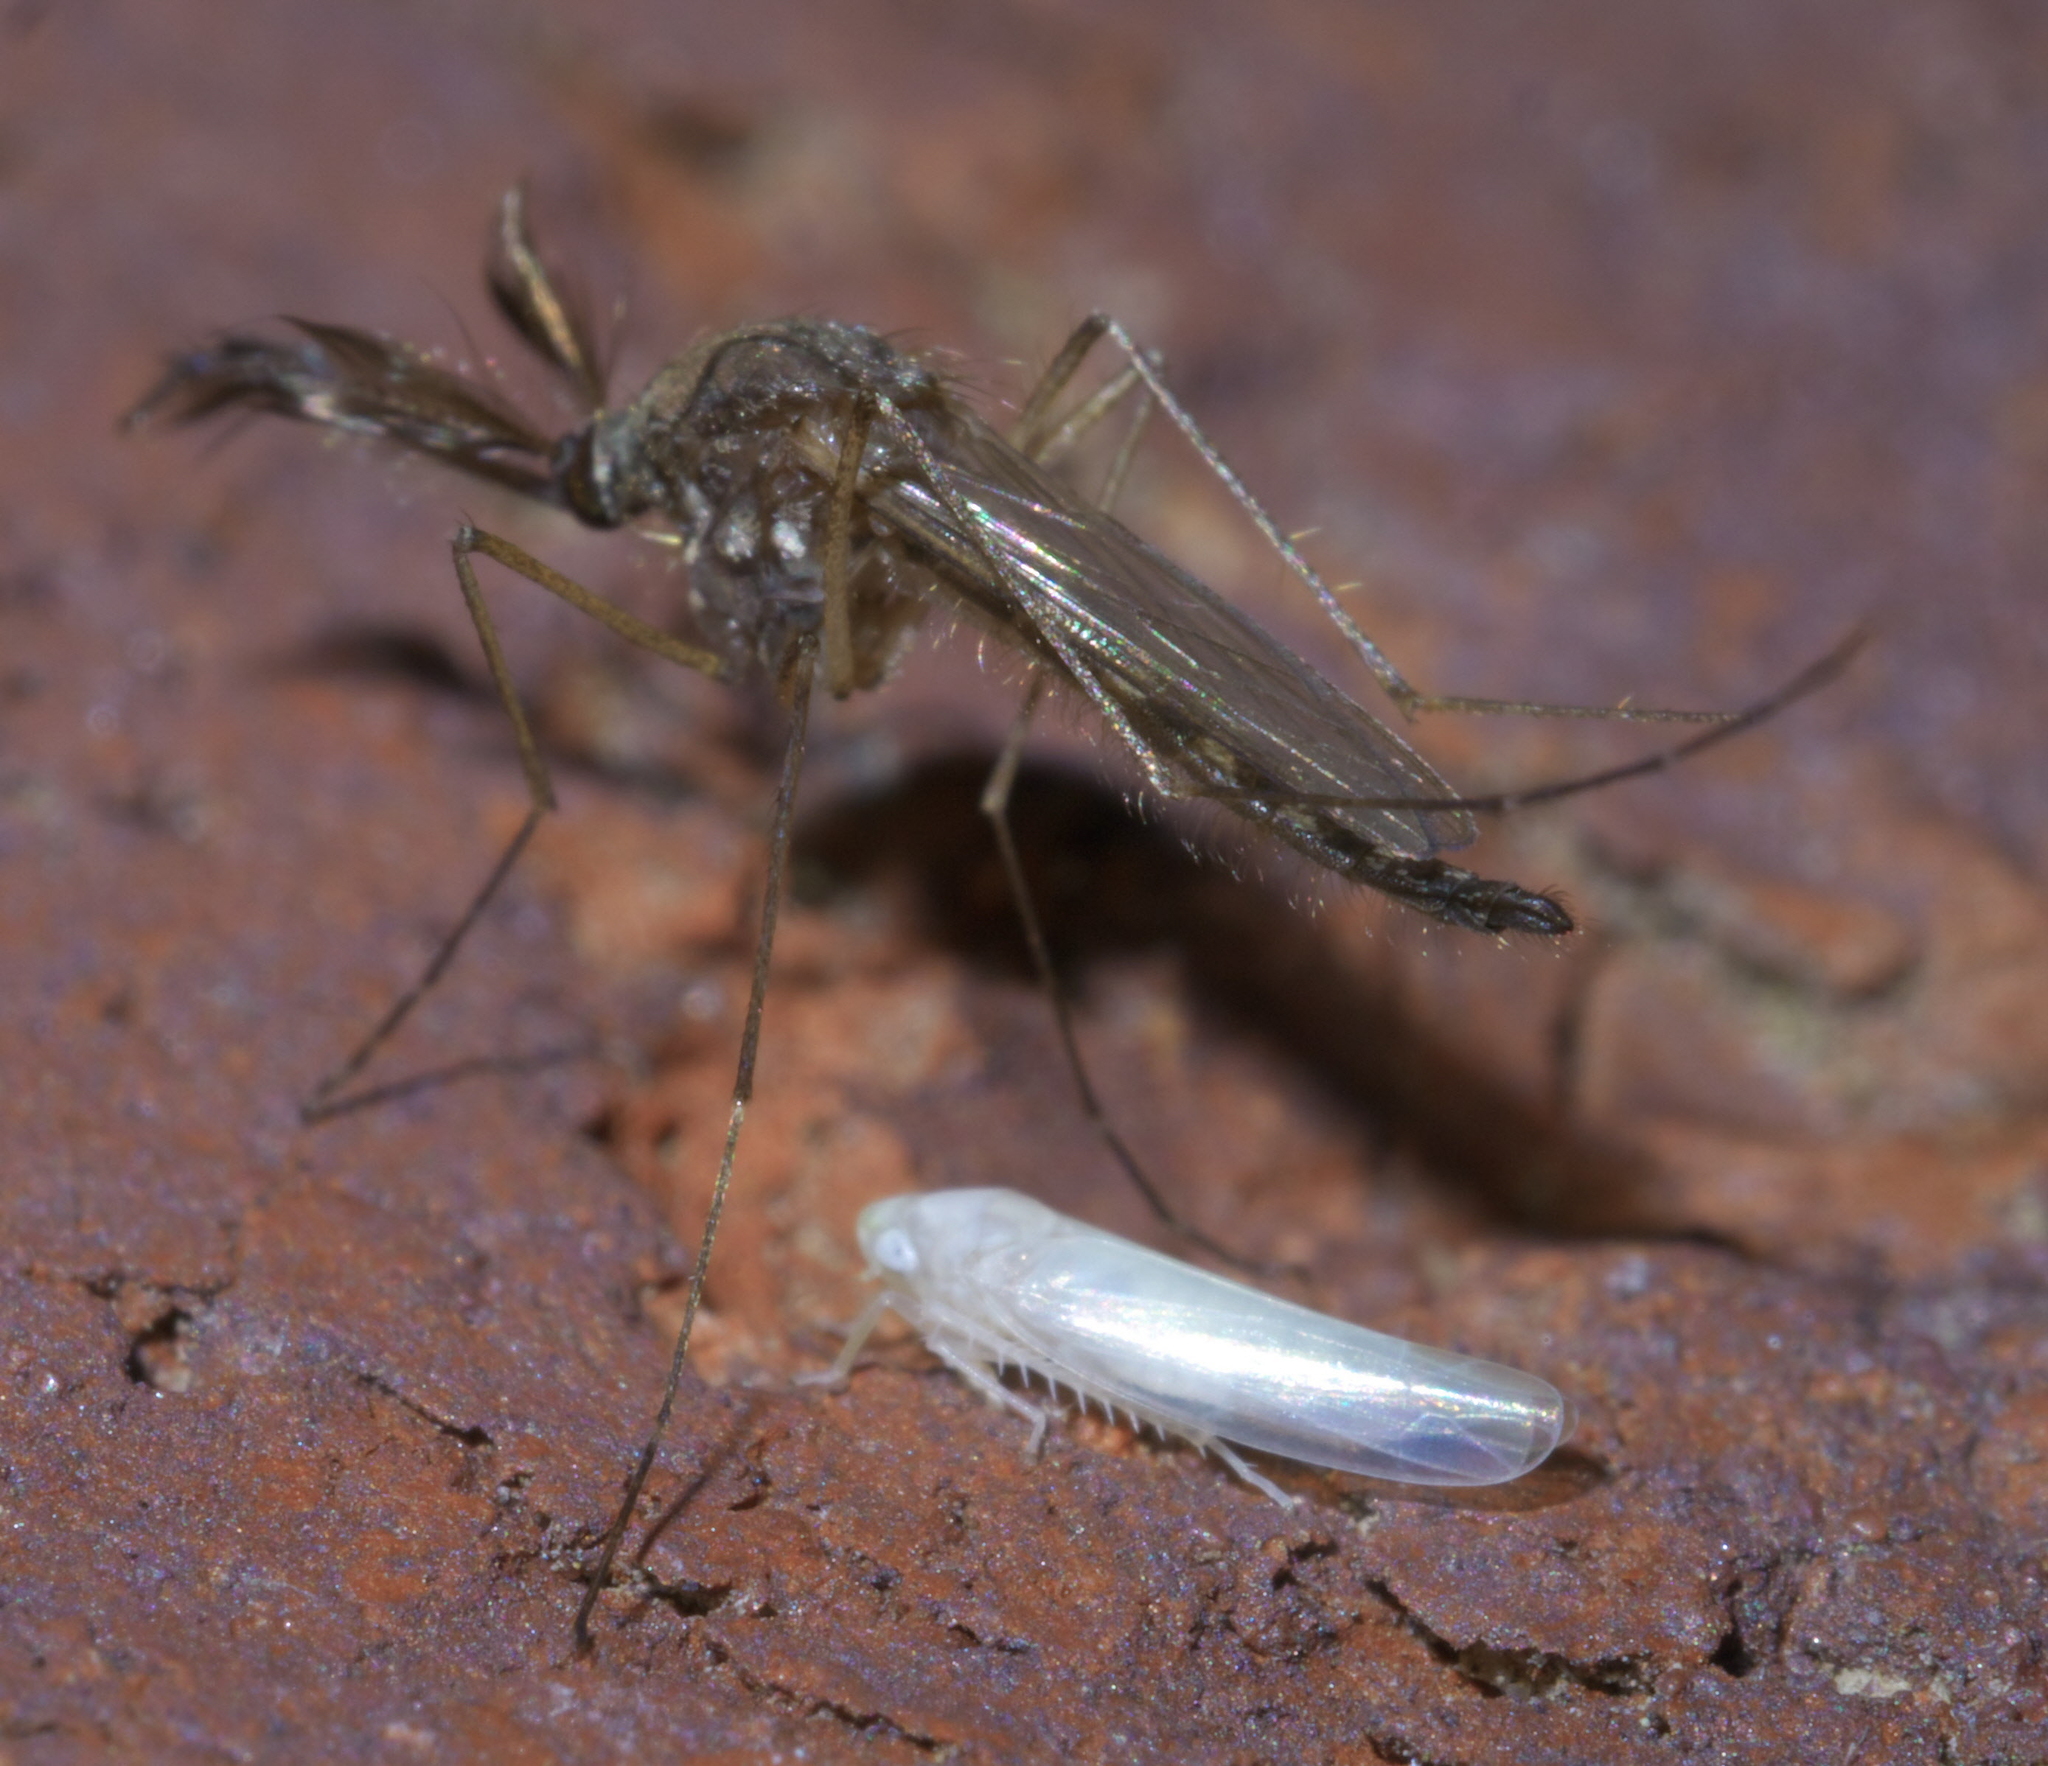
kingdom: Animalia
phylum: Arthropoda
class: Insecta
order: Diptera
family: Culicidae
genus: Aedes
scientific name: Aedes vexans
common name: Inland floodwater mosquito
